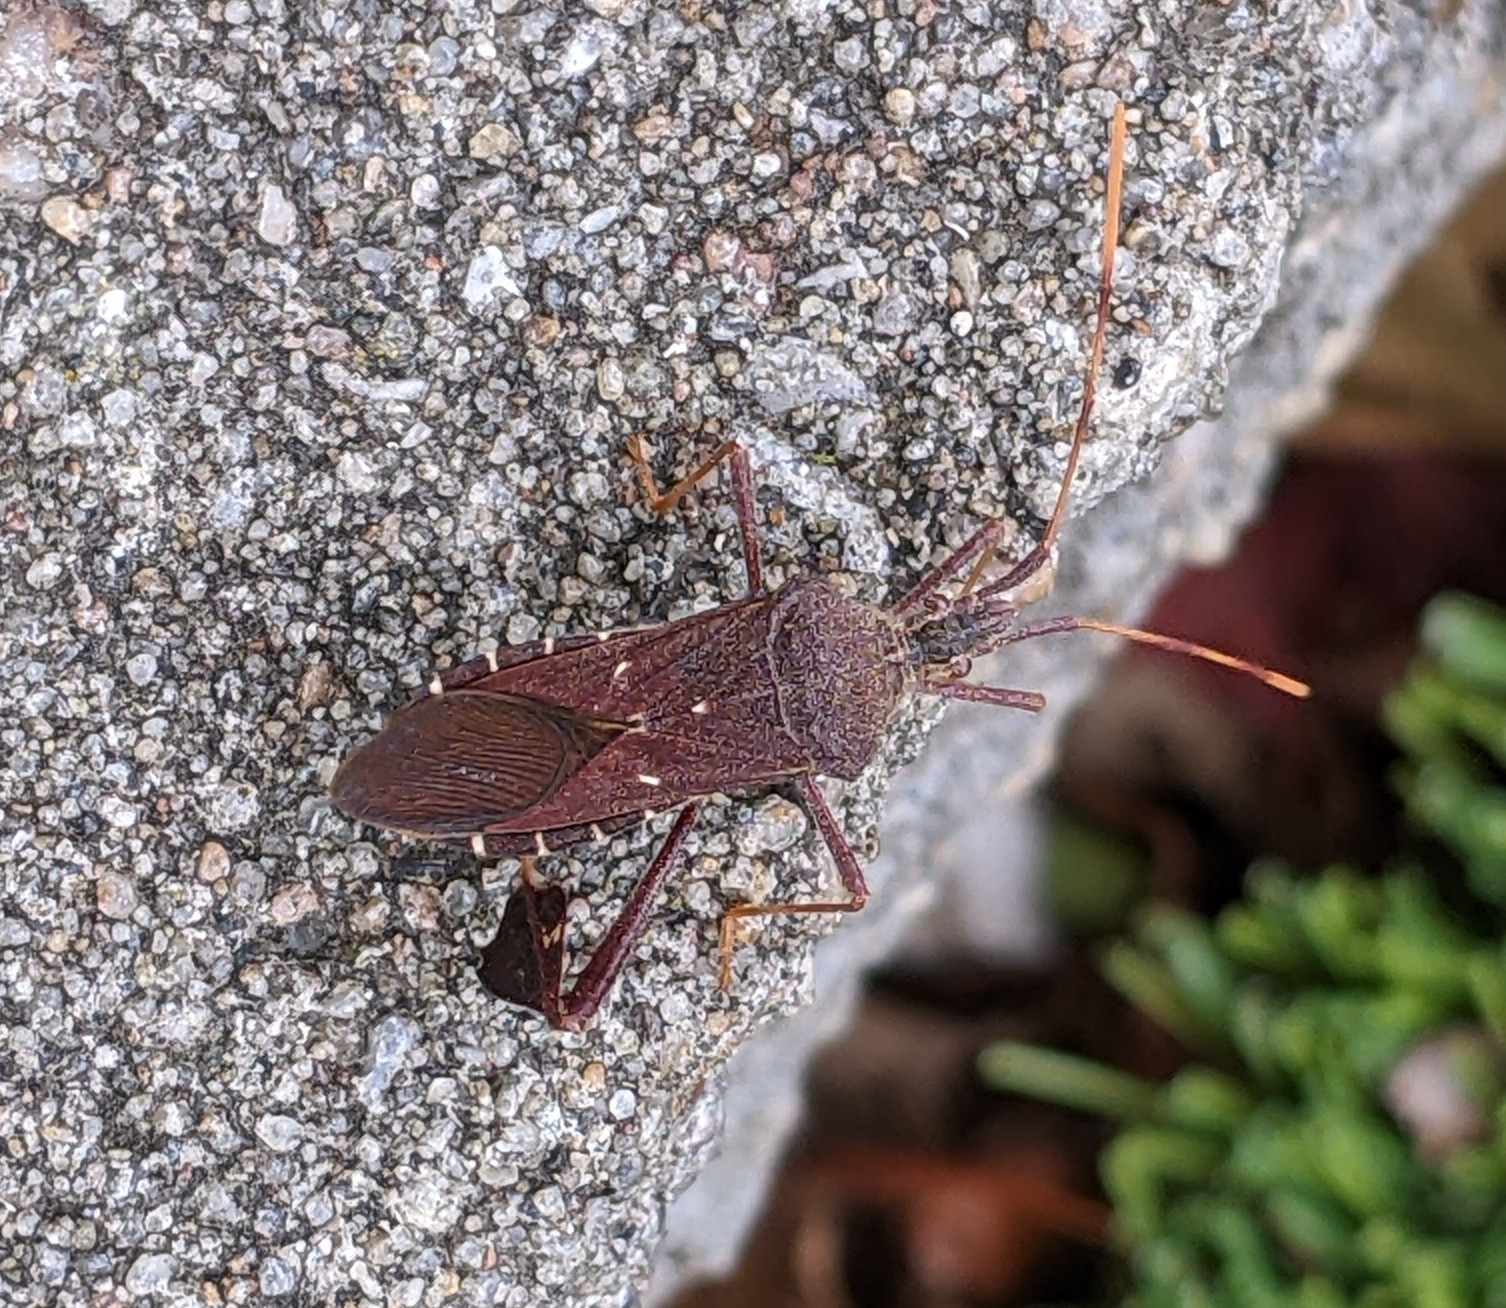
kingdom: Animalia
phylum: Arthropoda
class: Insecta
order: Hemiptera
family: Coreidae
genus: Leptoglossus
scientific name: Leptoglossus oppositus
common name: Northern leaf-footed bug
